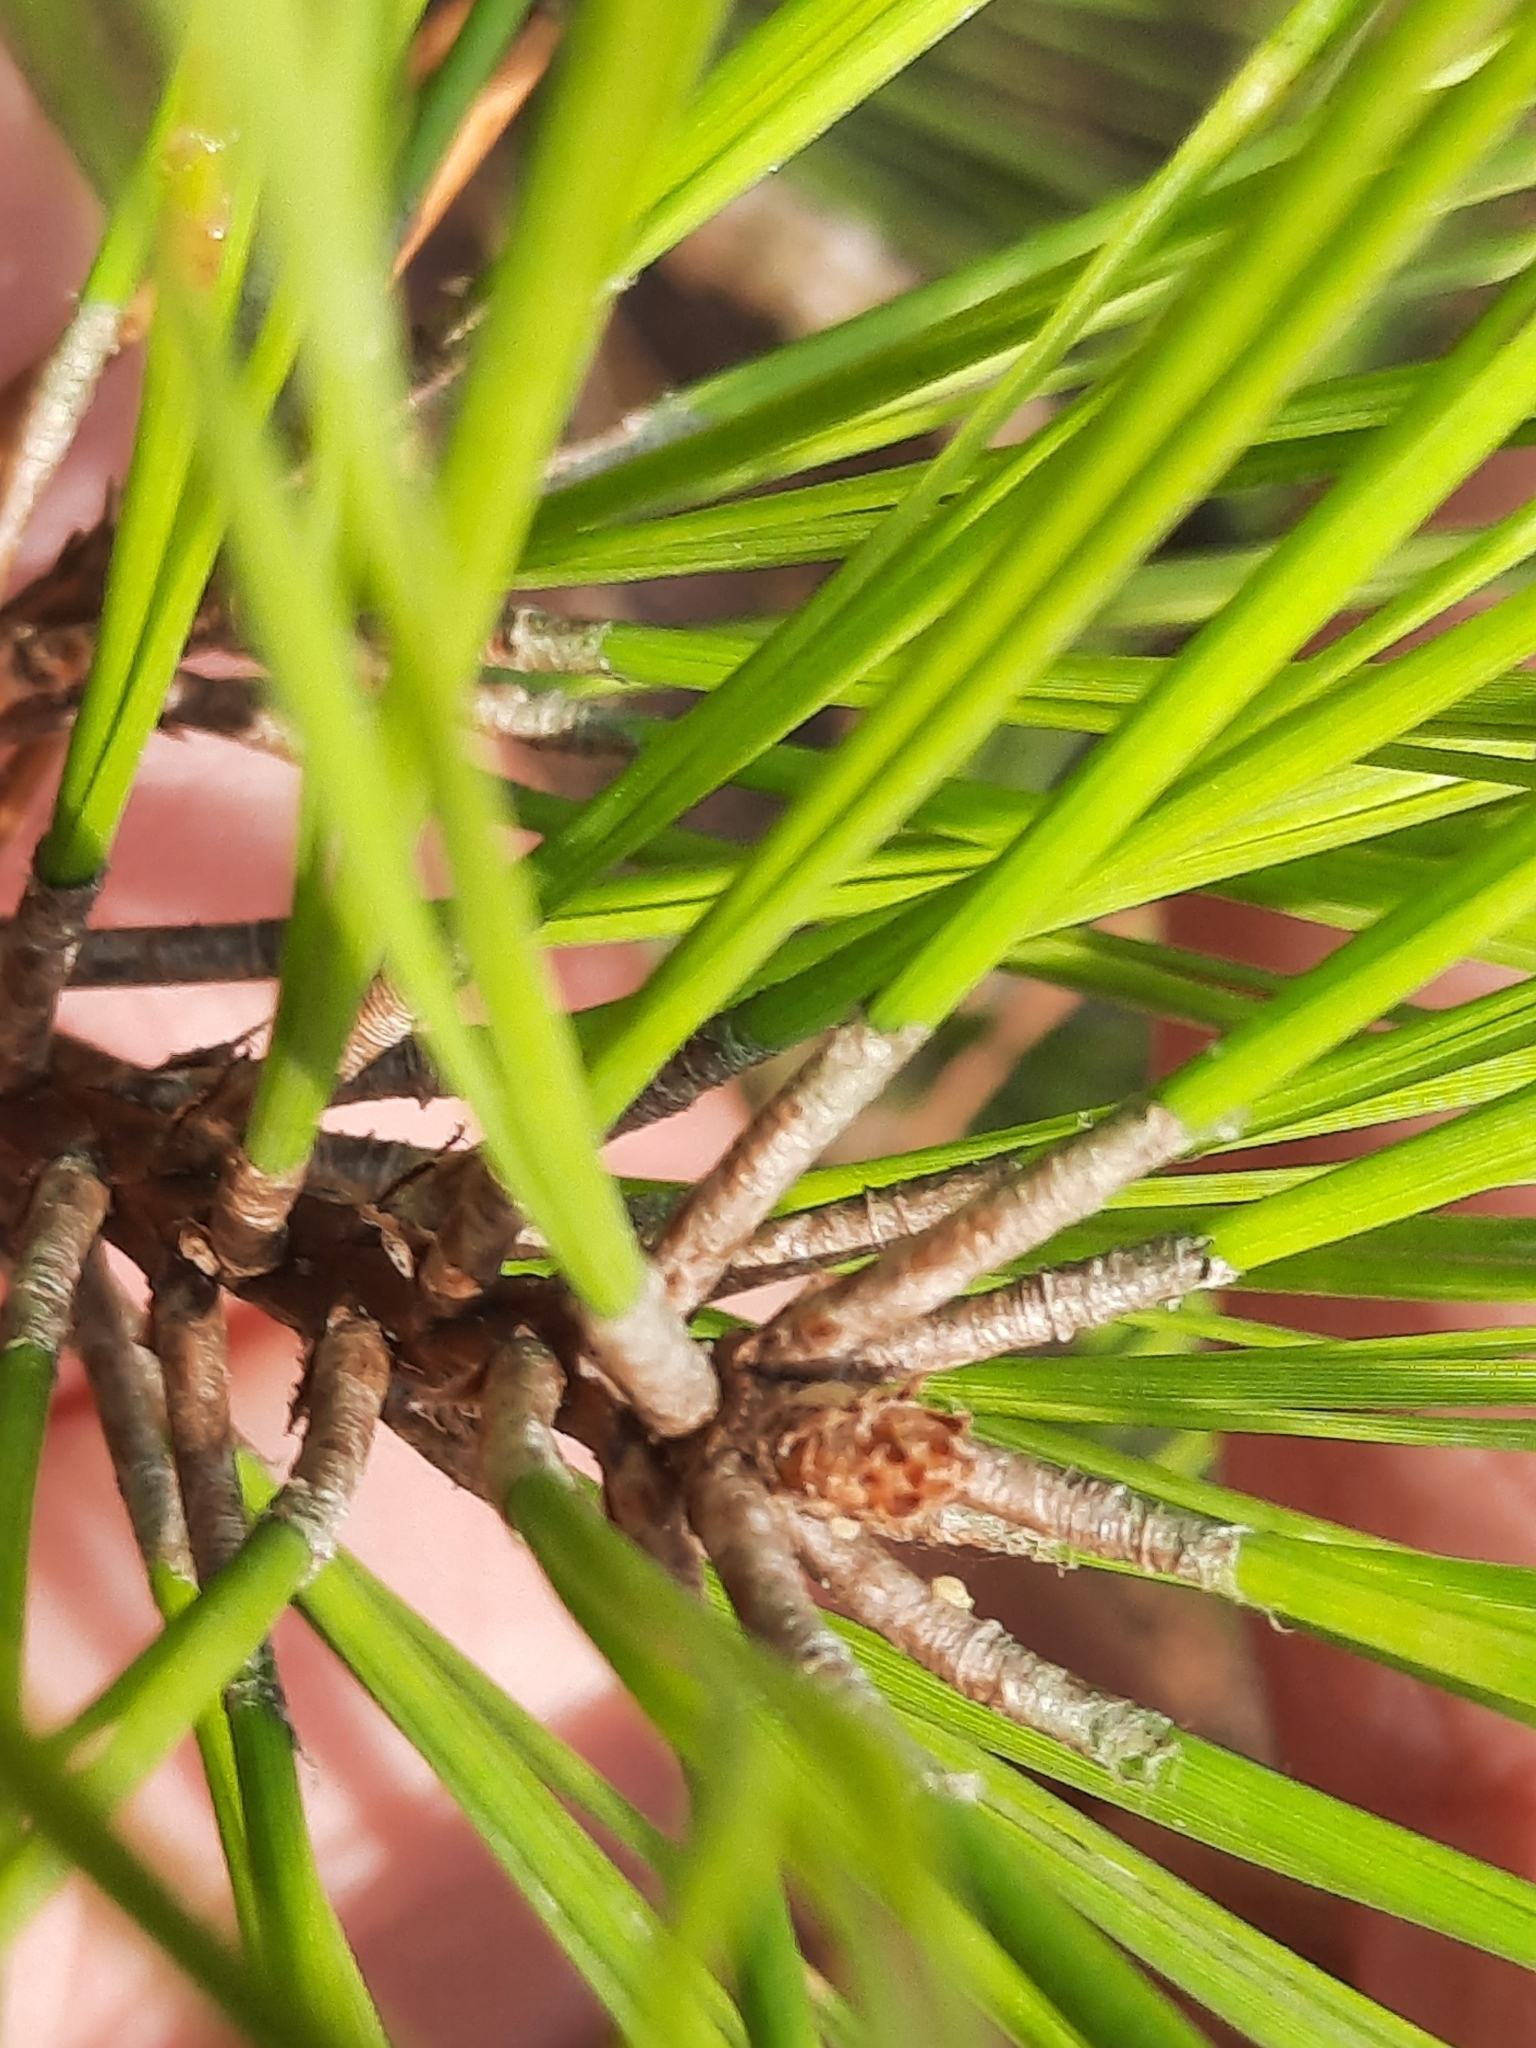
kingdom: Plantae
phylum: Tracheophyta
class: Pinopsida
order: Pinales
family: Pinaceae
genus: Pinus
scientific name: Pinus taeda
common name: Loblolly pine
